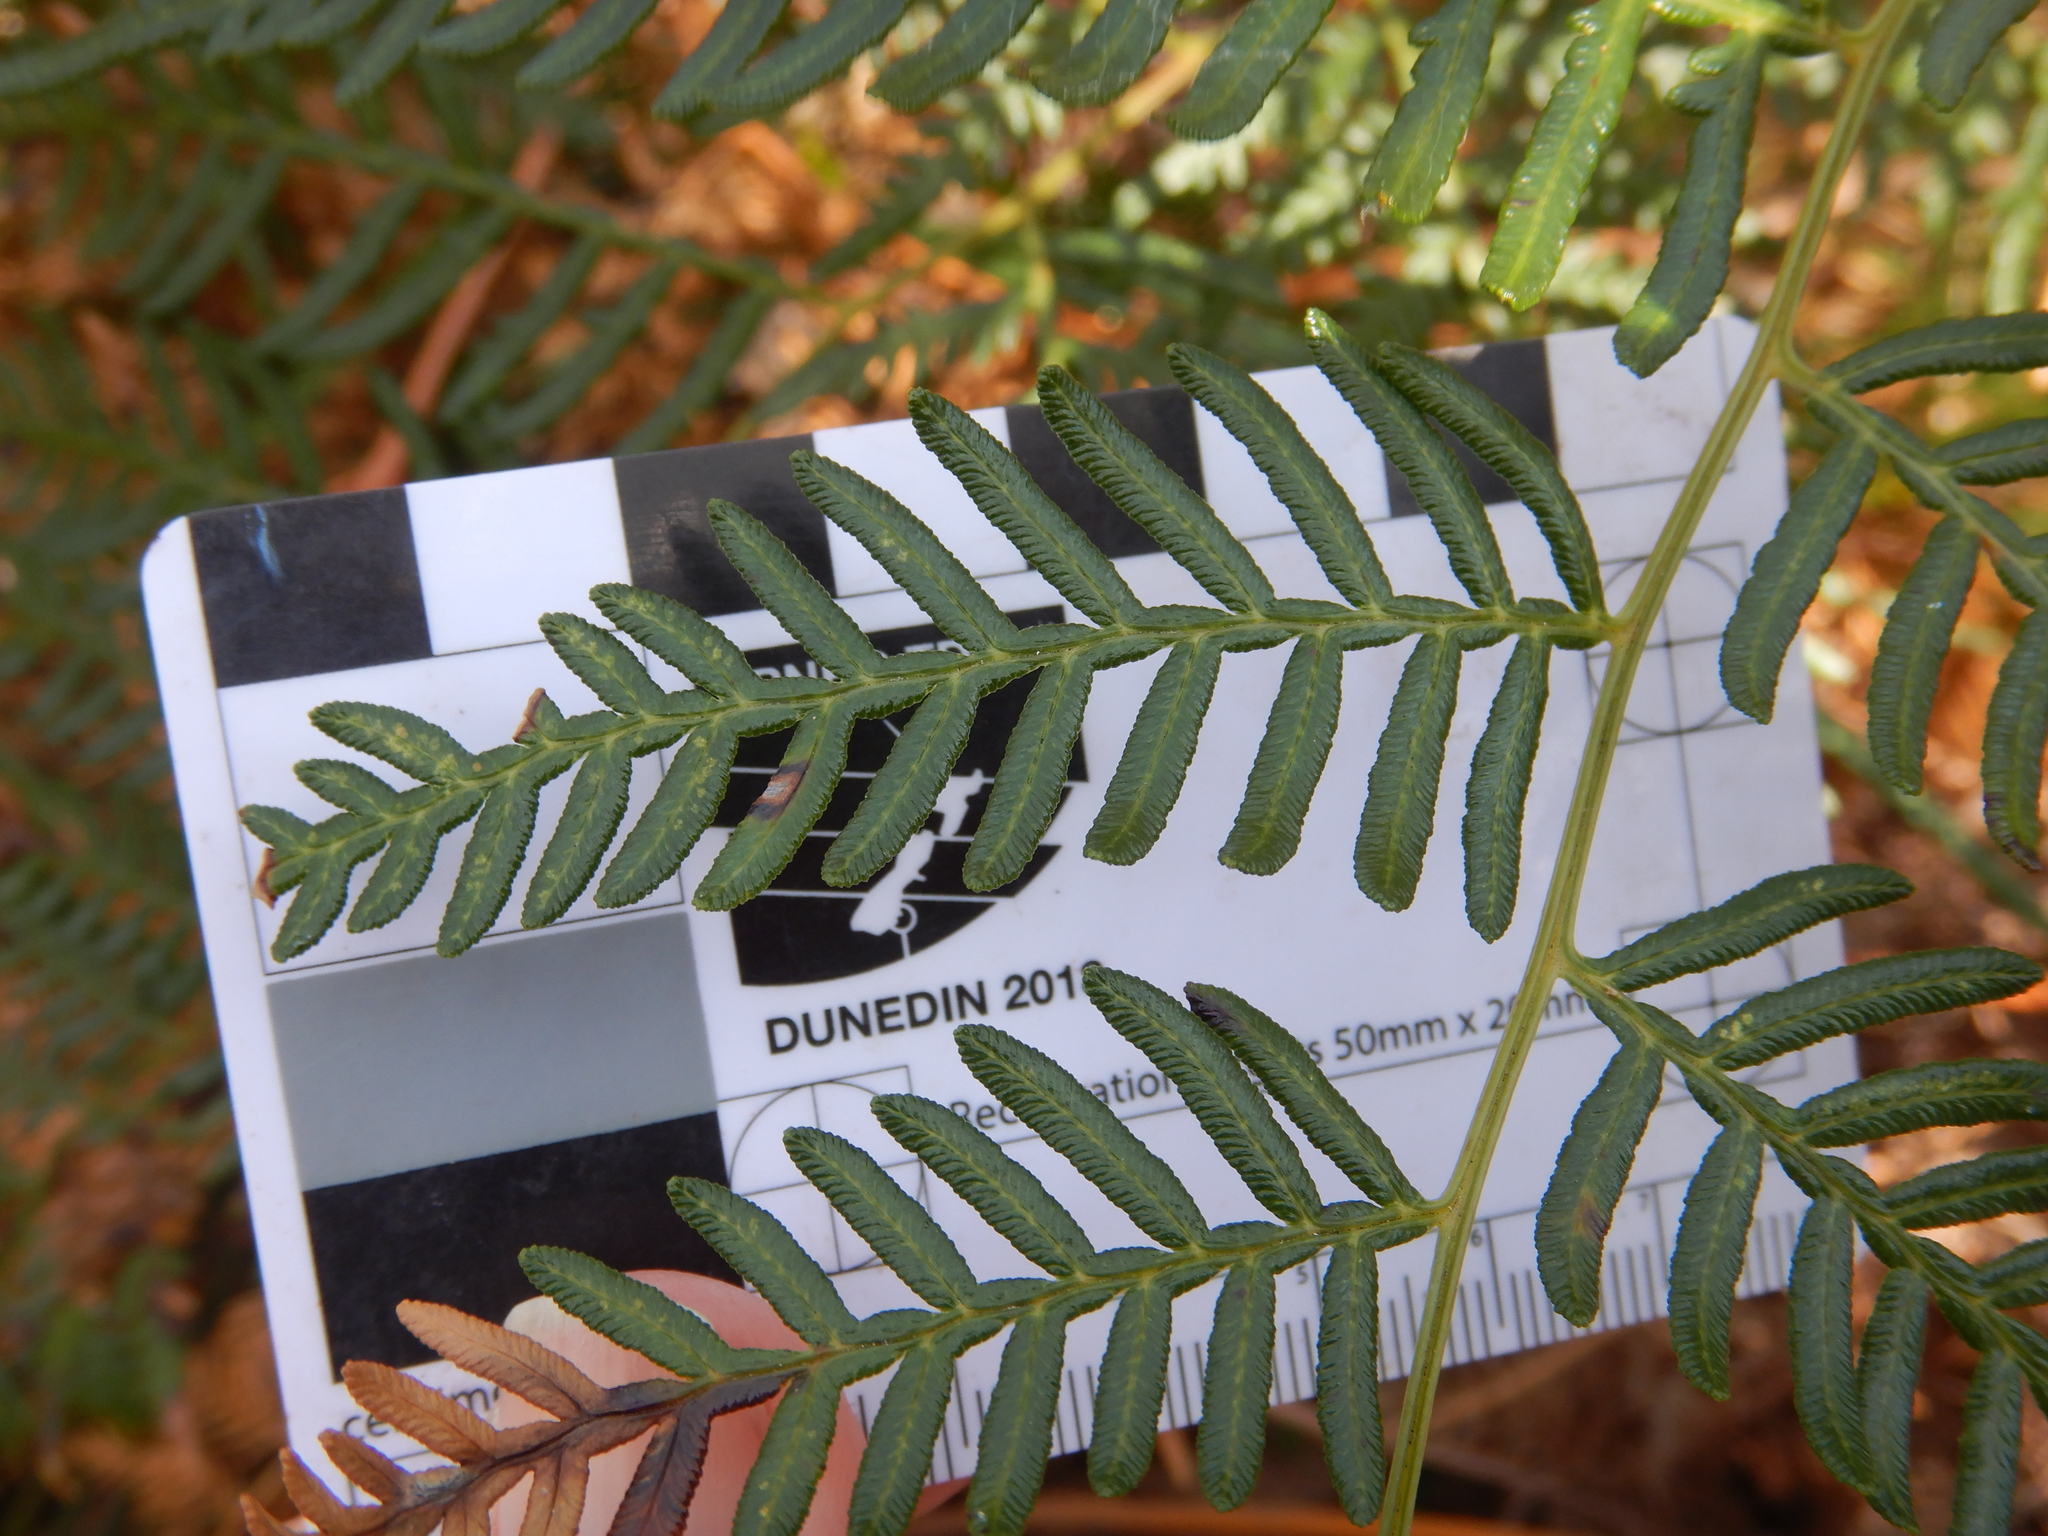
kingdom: Plantae
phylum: Tracheophyta
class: Polypodiopsida
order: Polypodiales
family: Dennstaedtiaceae
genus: Pteridium
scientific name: Pteridium esculentum
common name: Bracken fern
